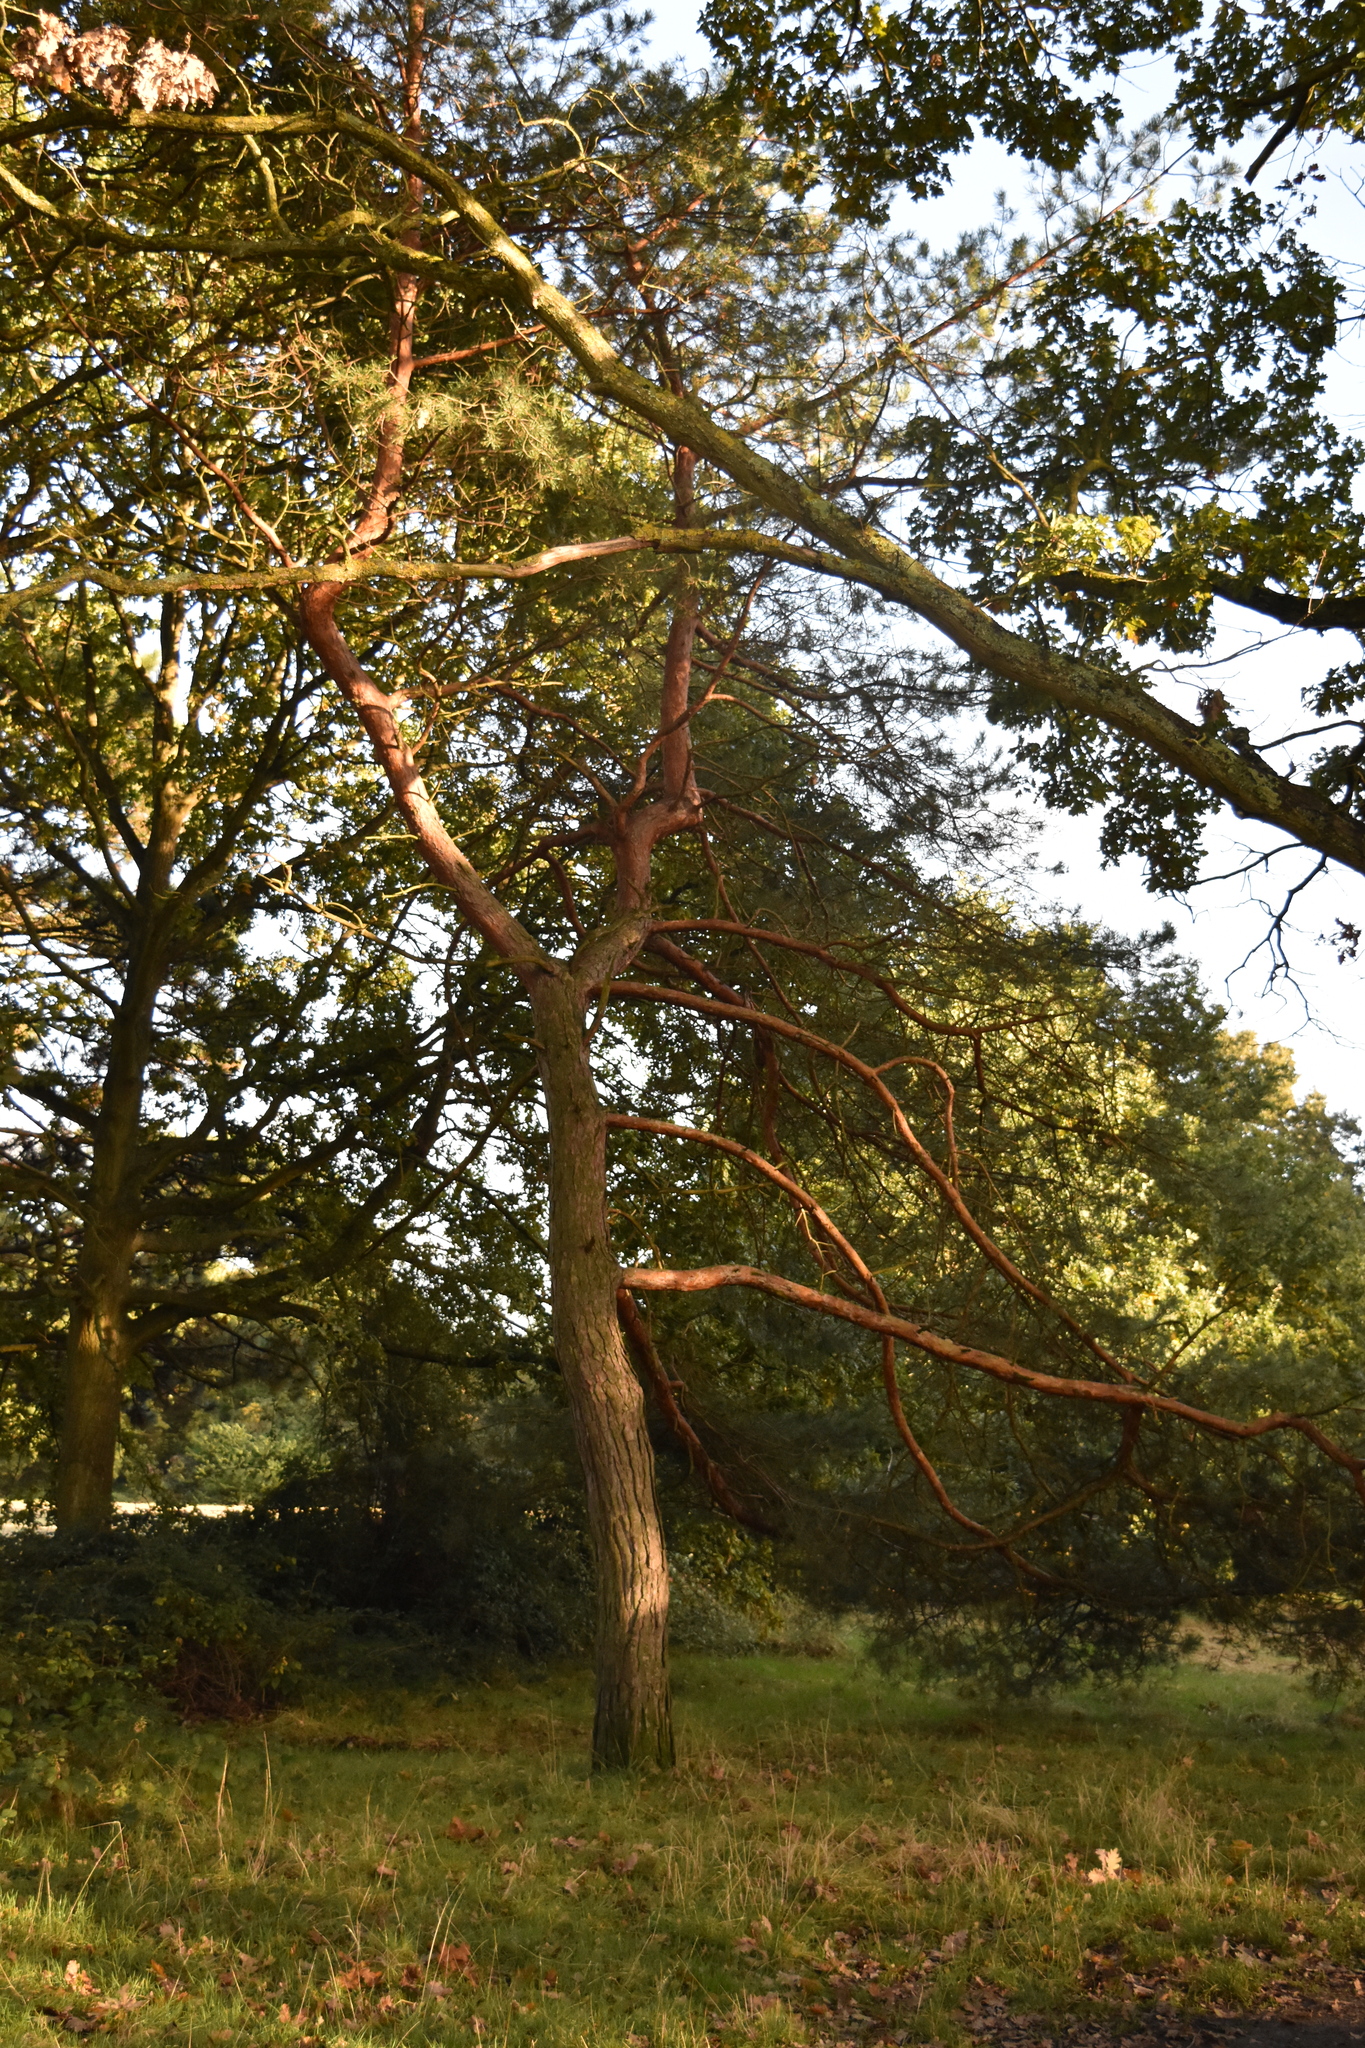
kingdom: Plantae
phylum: Tracheophyta
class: Pinopsida
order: Pinales
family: Pinaceae
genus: Pinus
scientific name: Pinus sylvestris
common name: Scots pine
